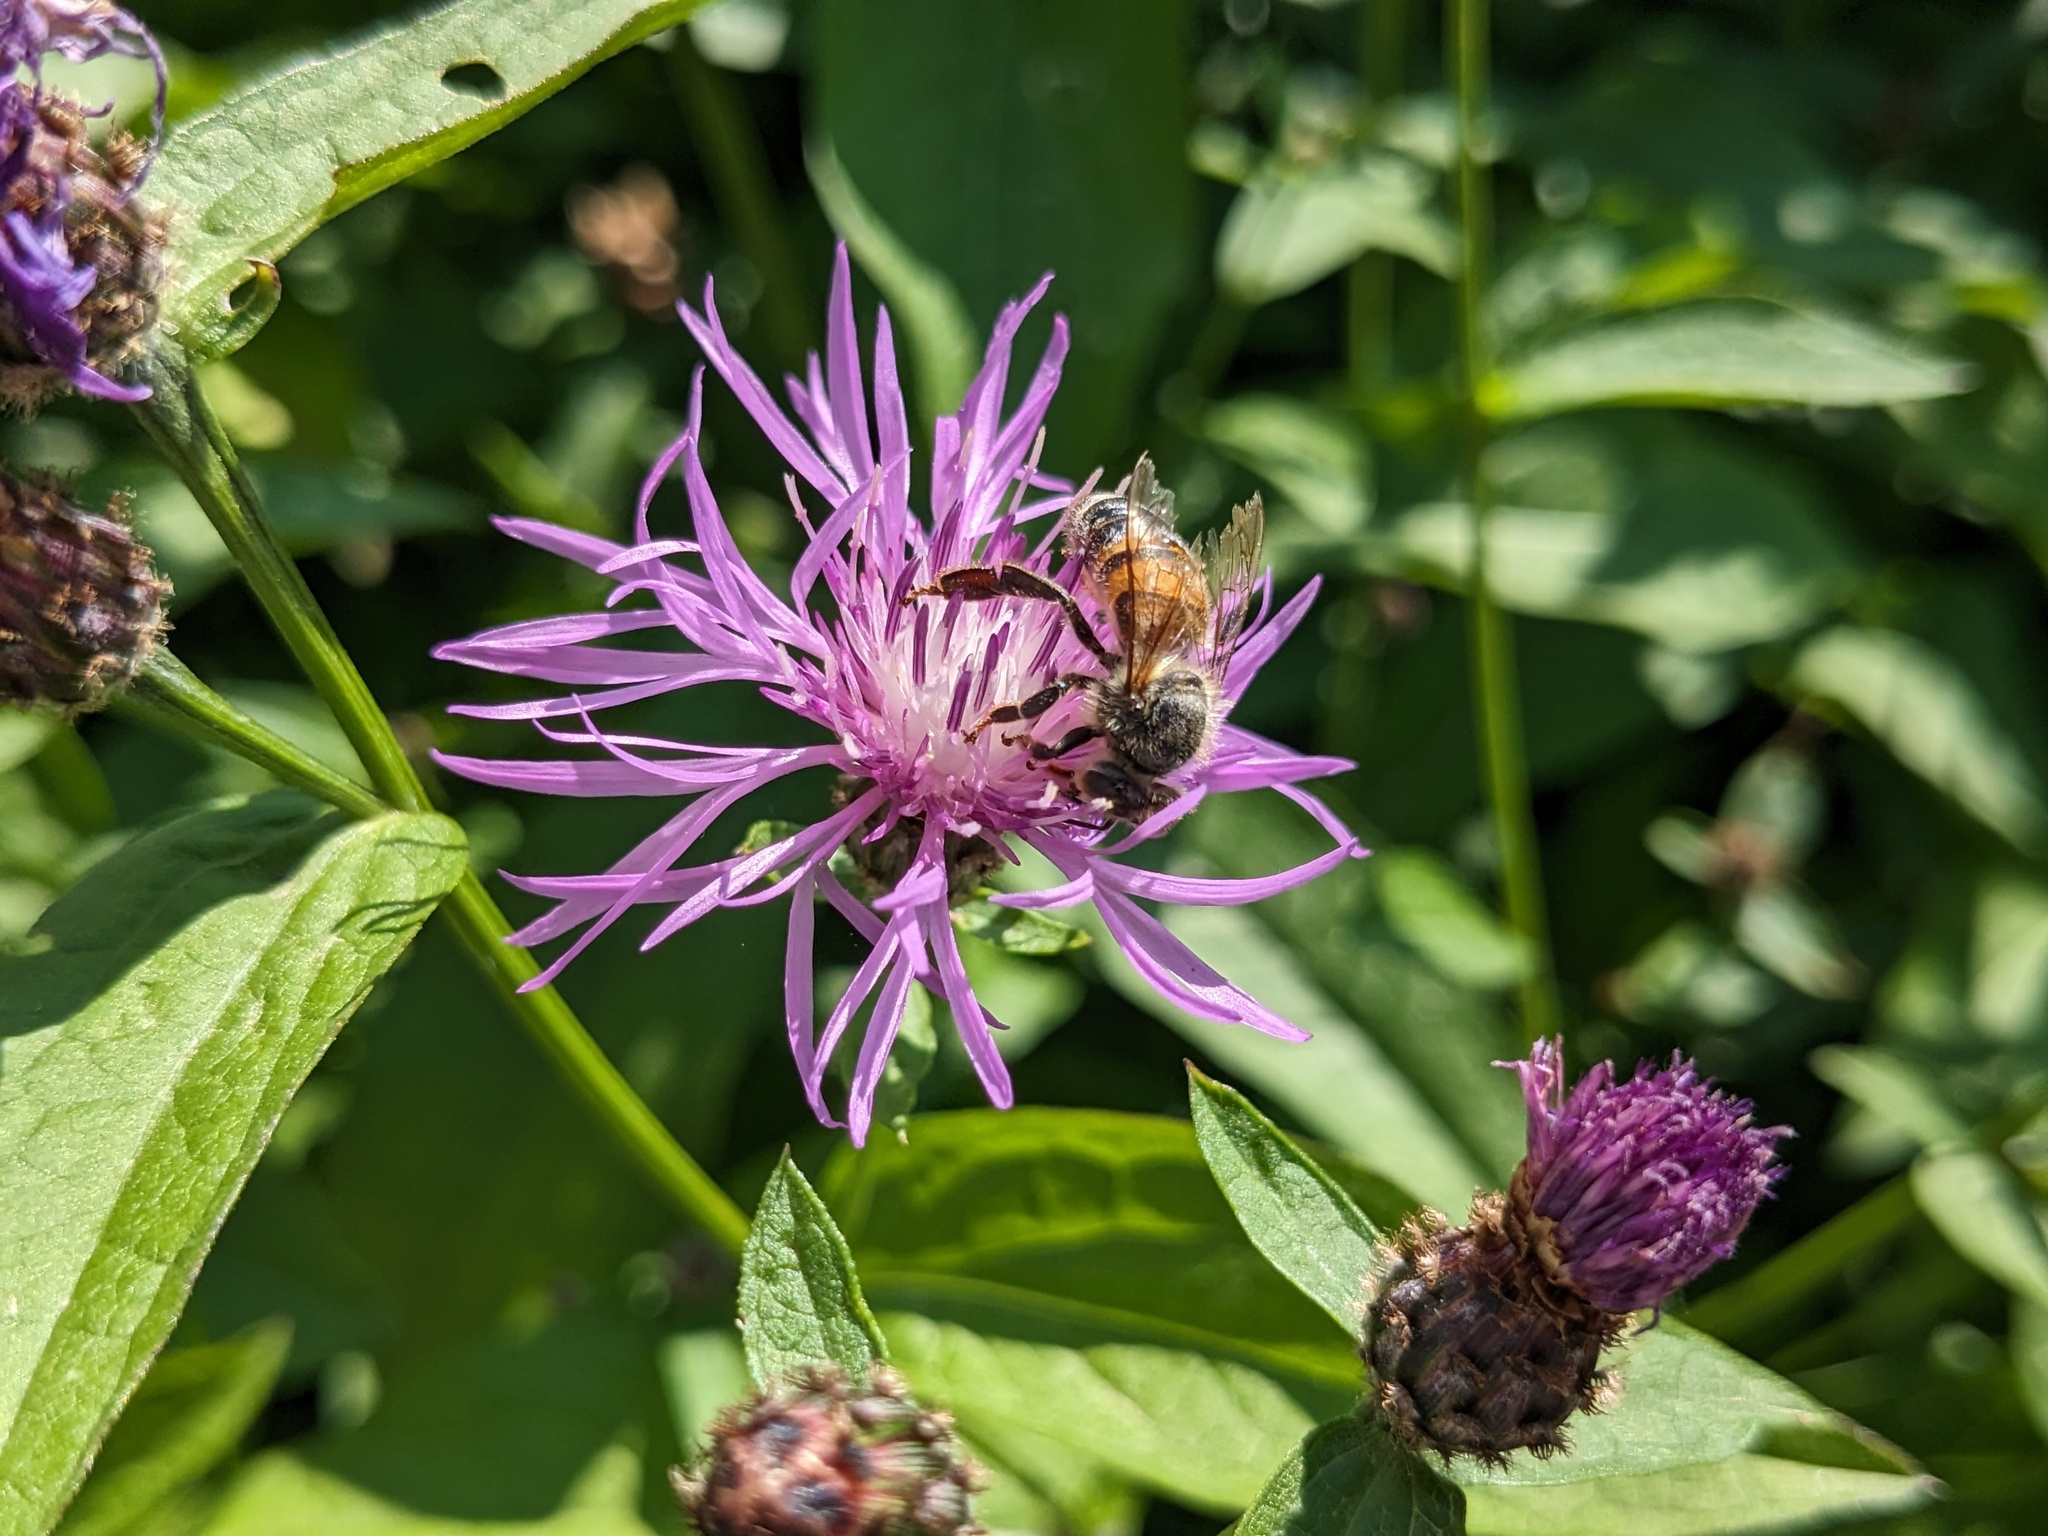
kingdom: Plantae
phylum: Tracheophyta
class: Magnoliopsida
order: Asterales
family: Asteraceae
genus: Centaurea
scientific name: Centaurea nigrescens
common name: Tyrol knapweed
